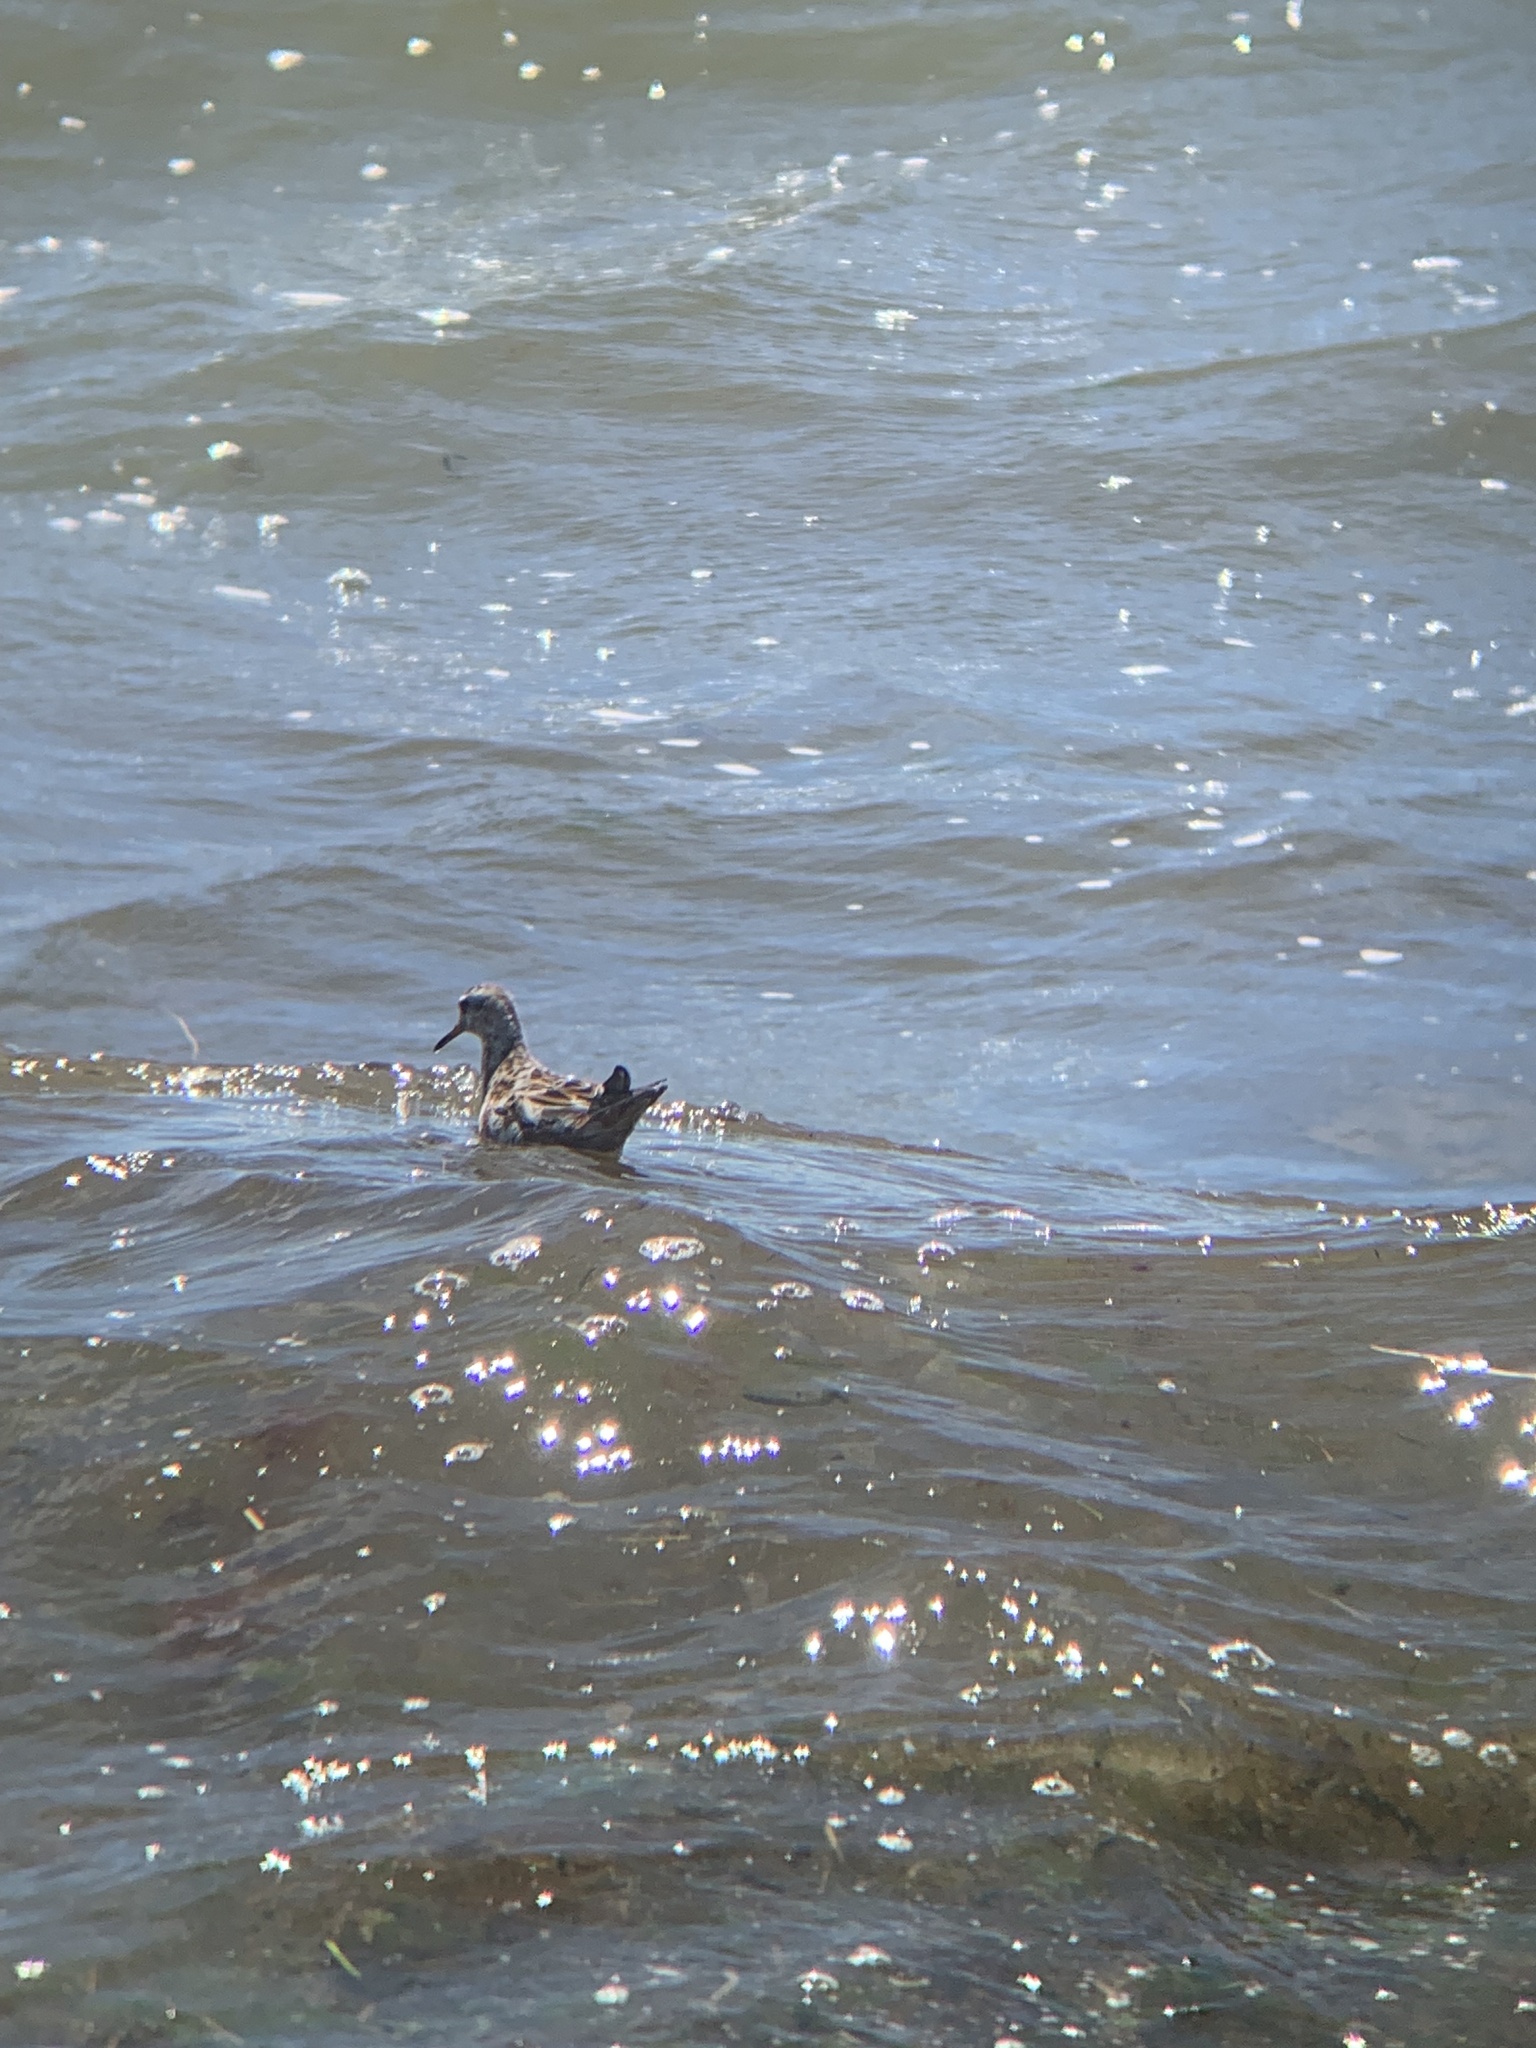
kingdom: Animalia
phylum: Chordata
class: Aves
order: Charadriiformes
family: Scolopacidae
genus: Phalaropus
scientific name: Phalaropus fulicarius
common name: Red phalarope
